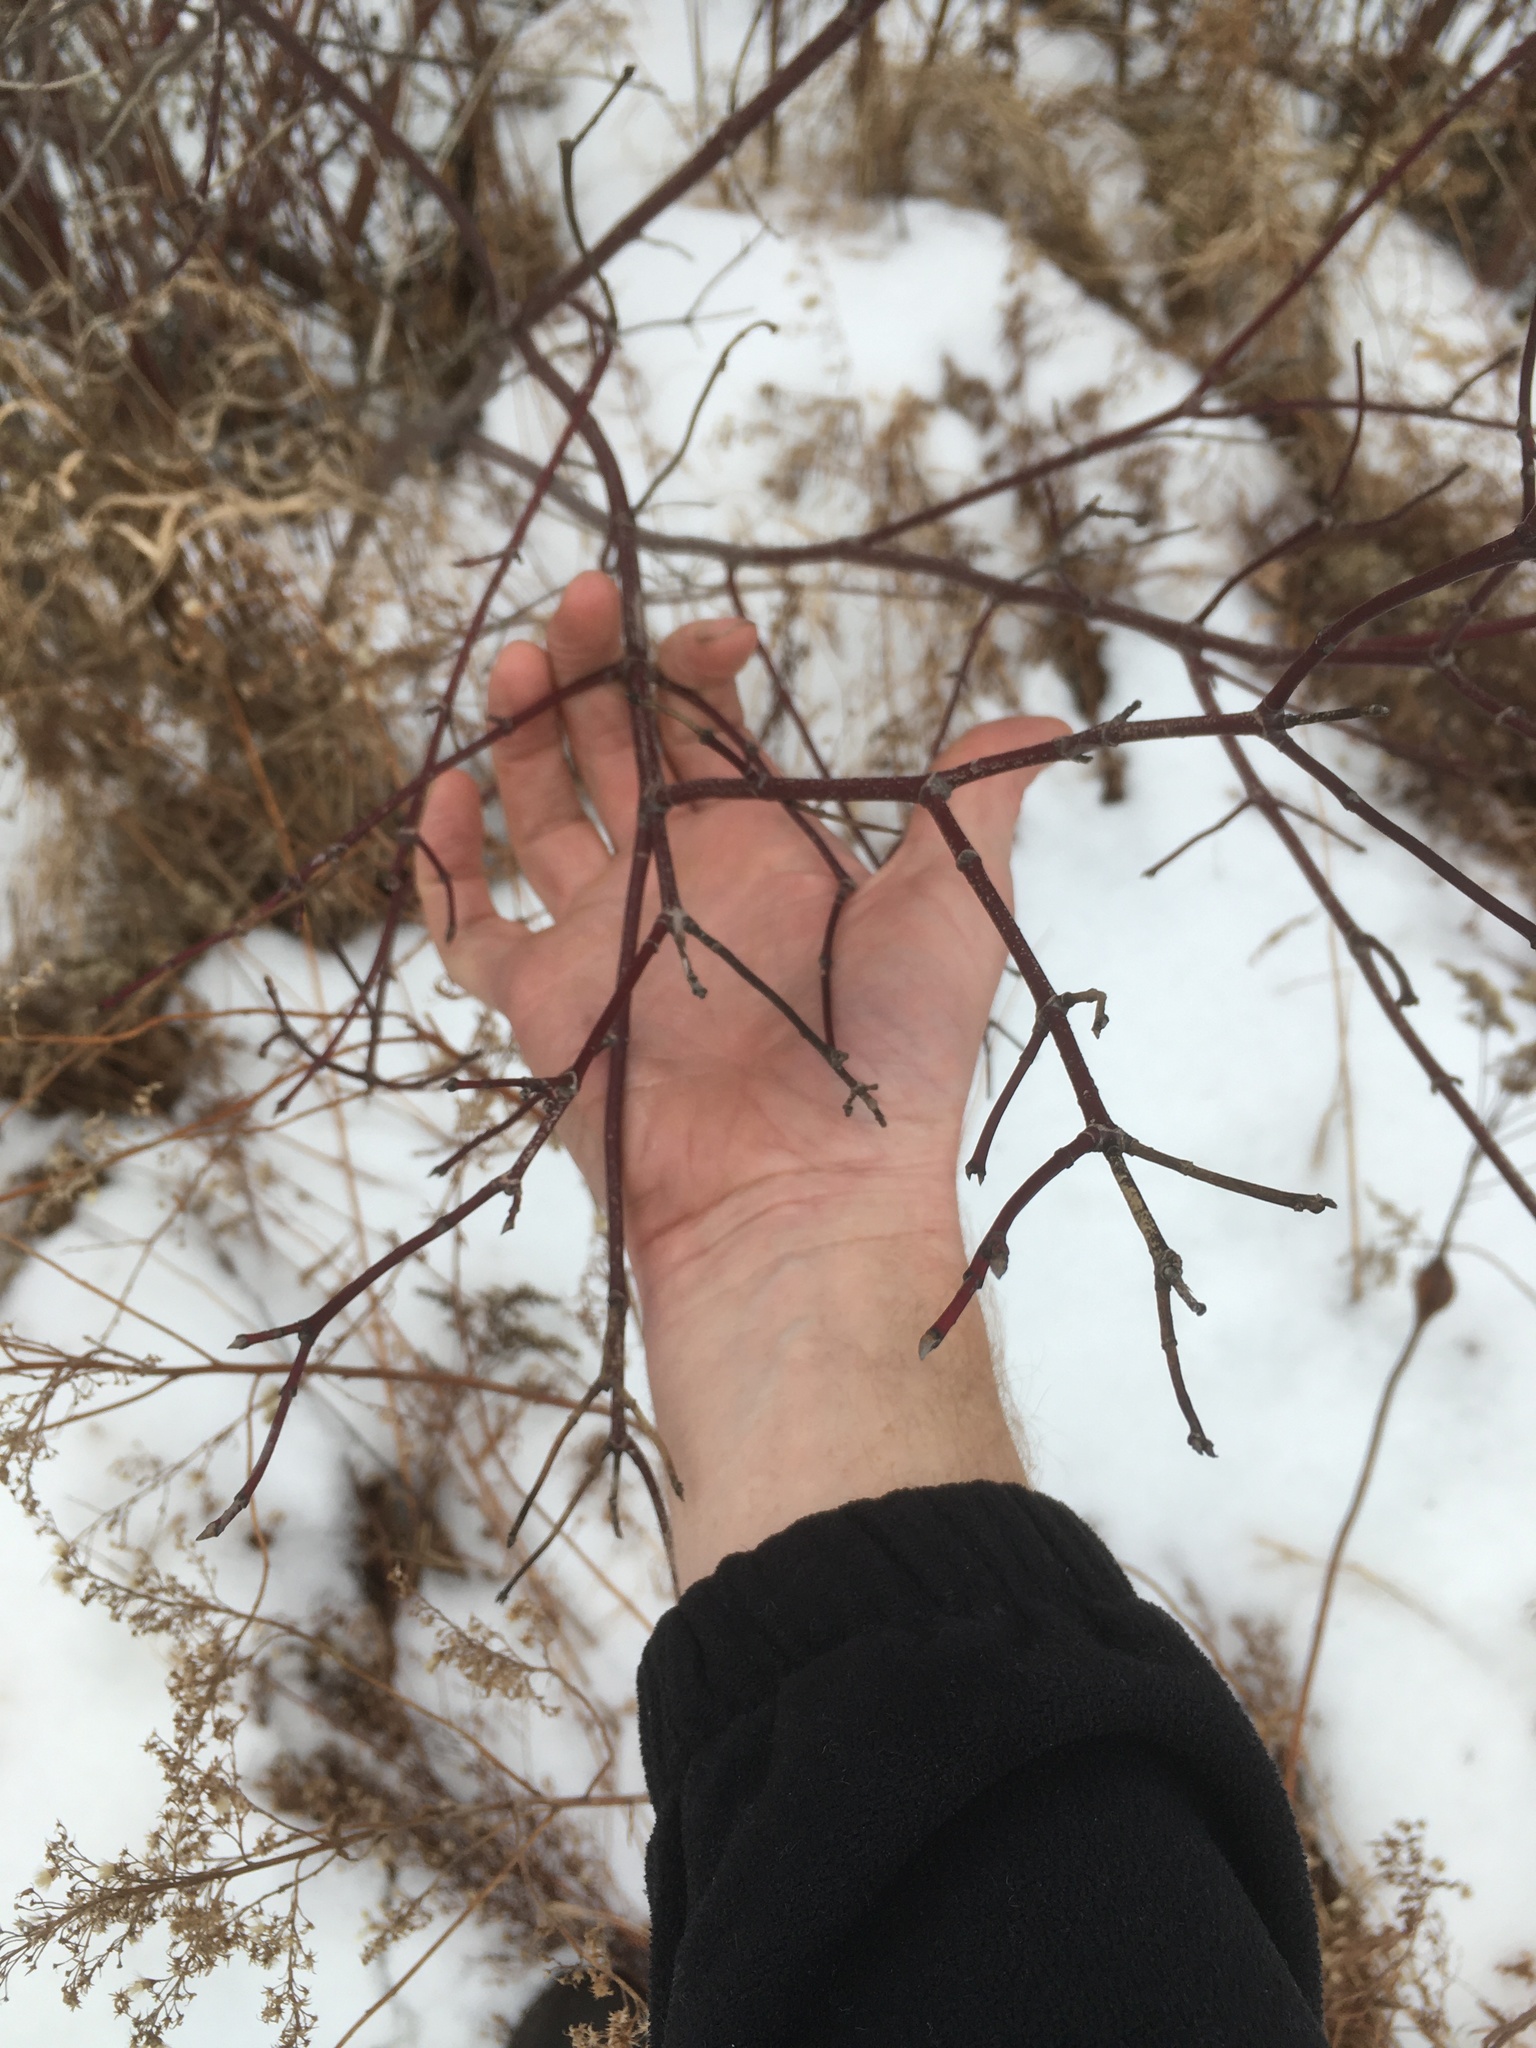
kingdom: Plantae
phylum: Tracheophyta
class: Magnoliopsida
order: Cornales
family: Cornaceae
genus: Cornus
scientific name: Cornus sericea
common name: Red-osier dogwood
